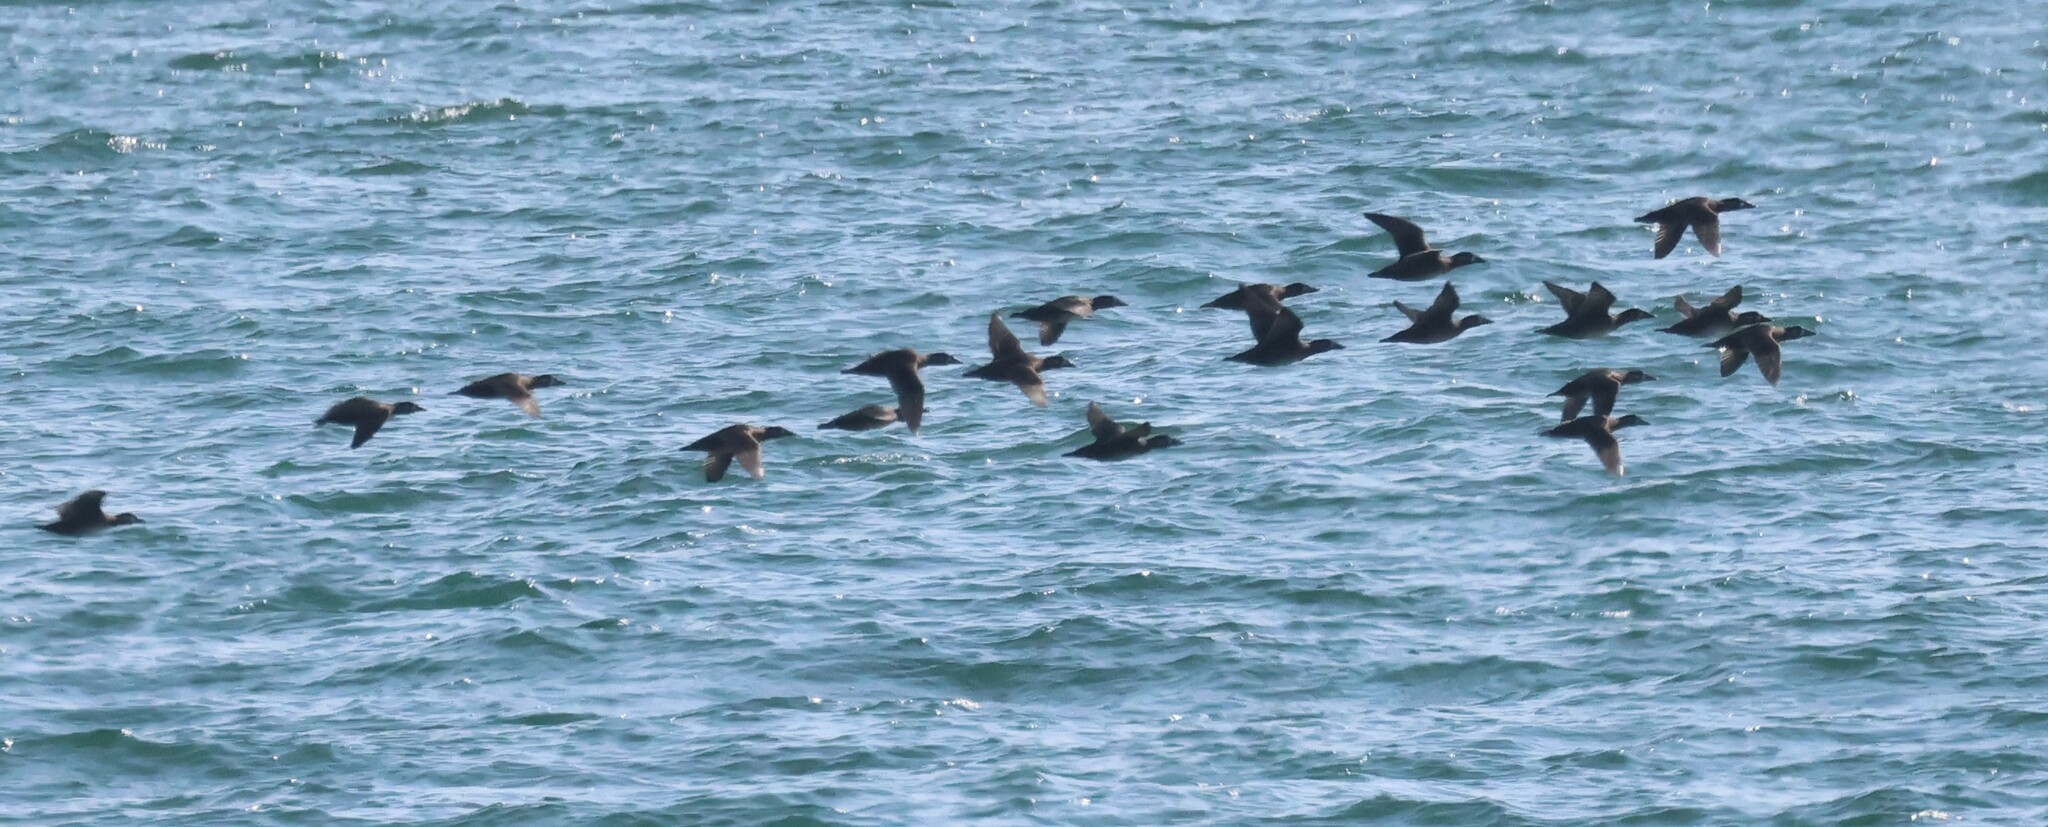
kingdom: Animalia
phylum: Chordata
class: Aves
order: Anseriformes
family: Anatidae
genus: Melanitta
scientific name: Melanitta perspicillata
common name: Surf scoter
